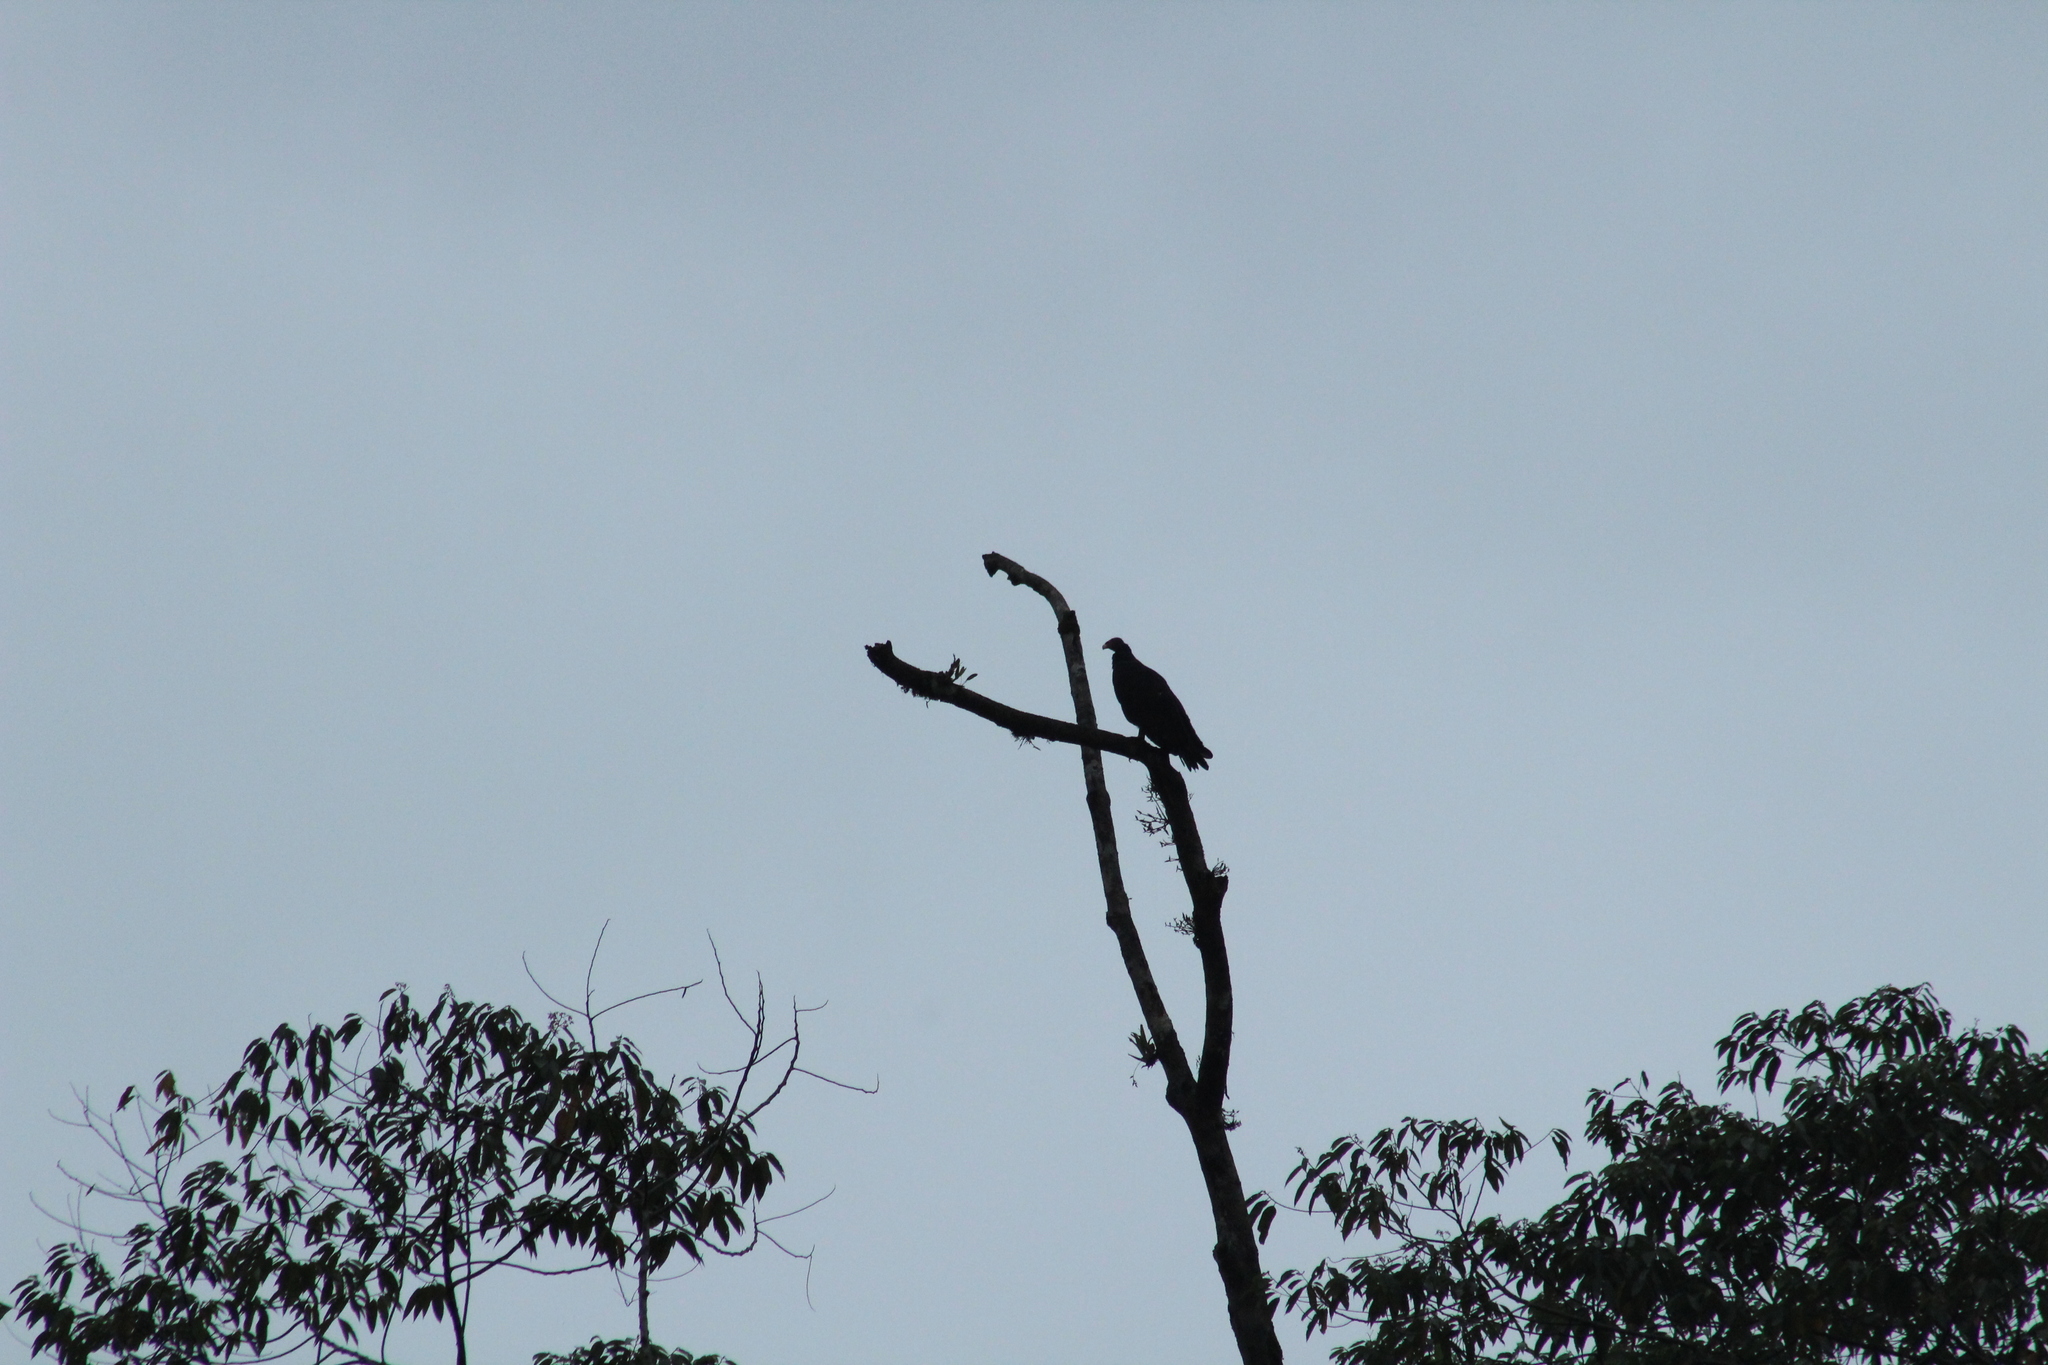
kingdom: Animalia
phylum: Chordata
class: Aves
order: Accipitriformes
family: Cathartidae
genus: Cathartes
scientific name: Cathartes aura
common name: Turkey vulture
